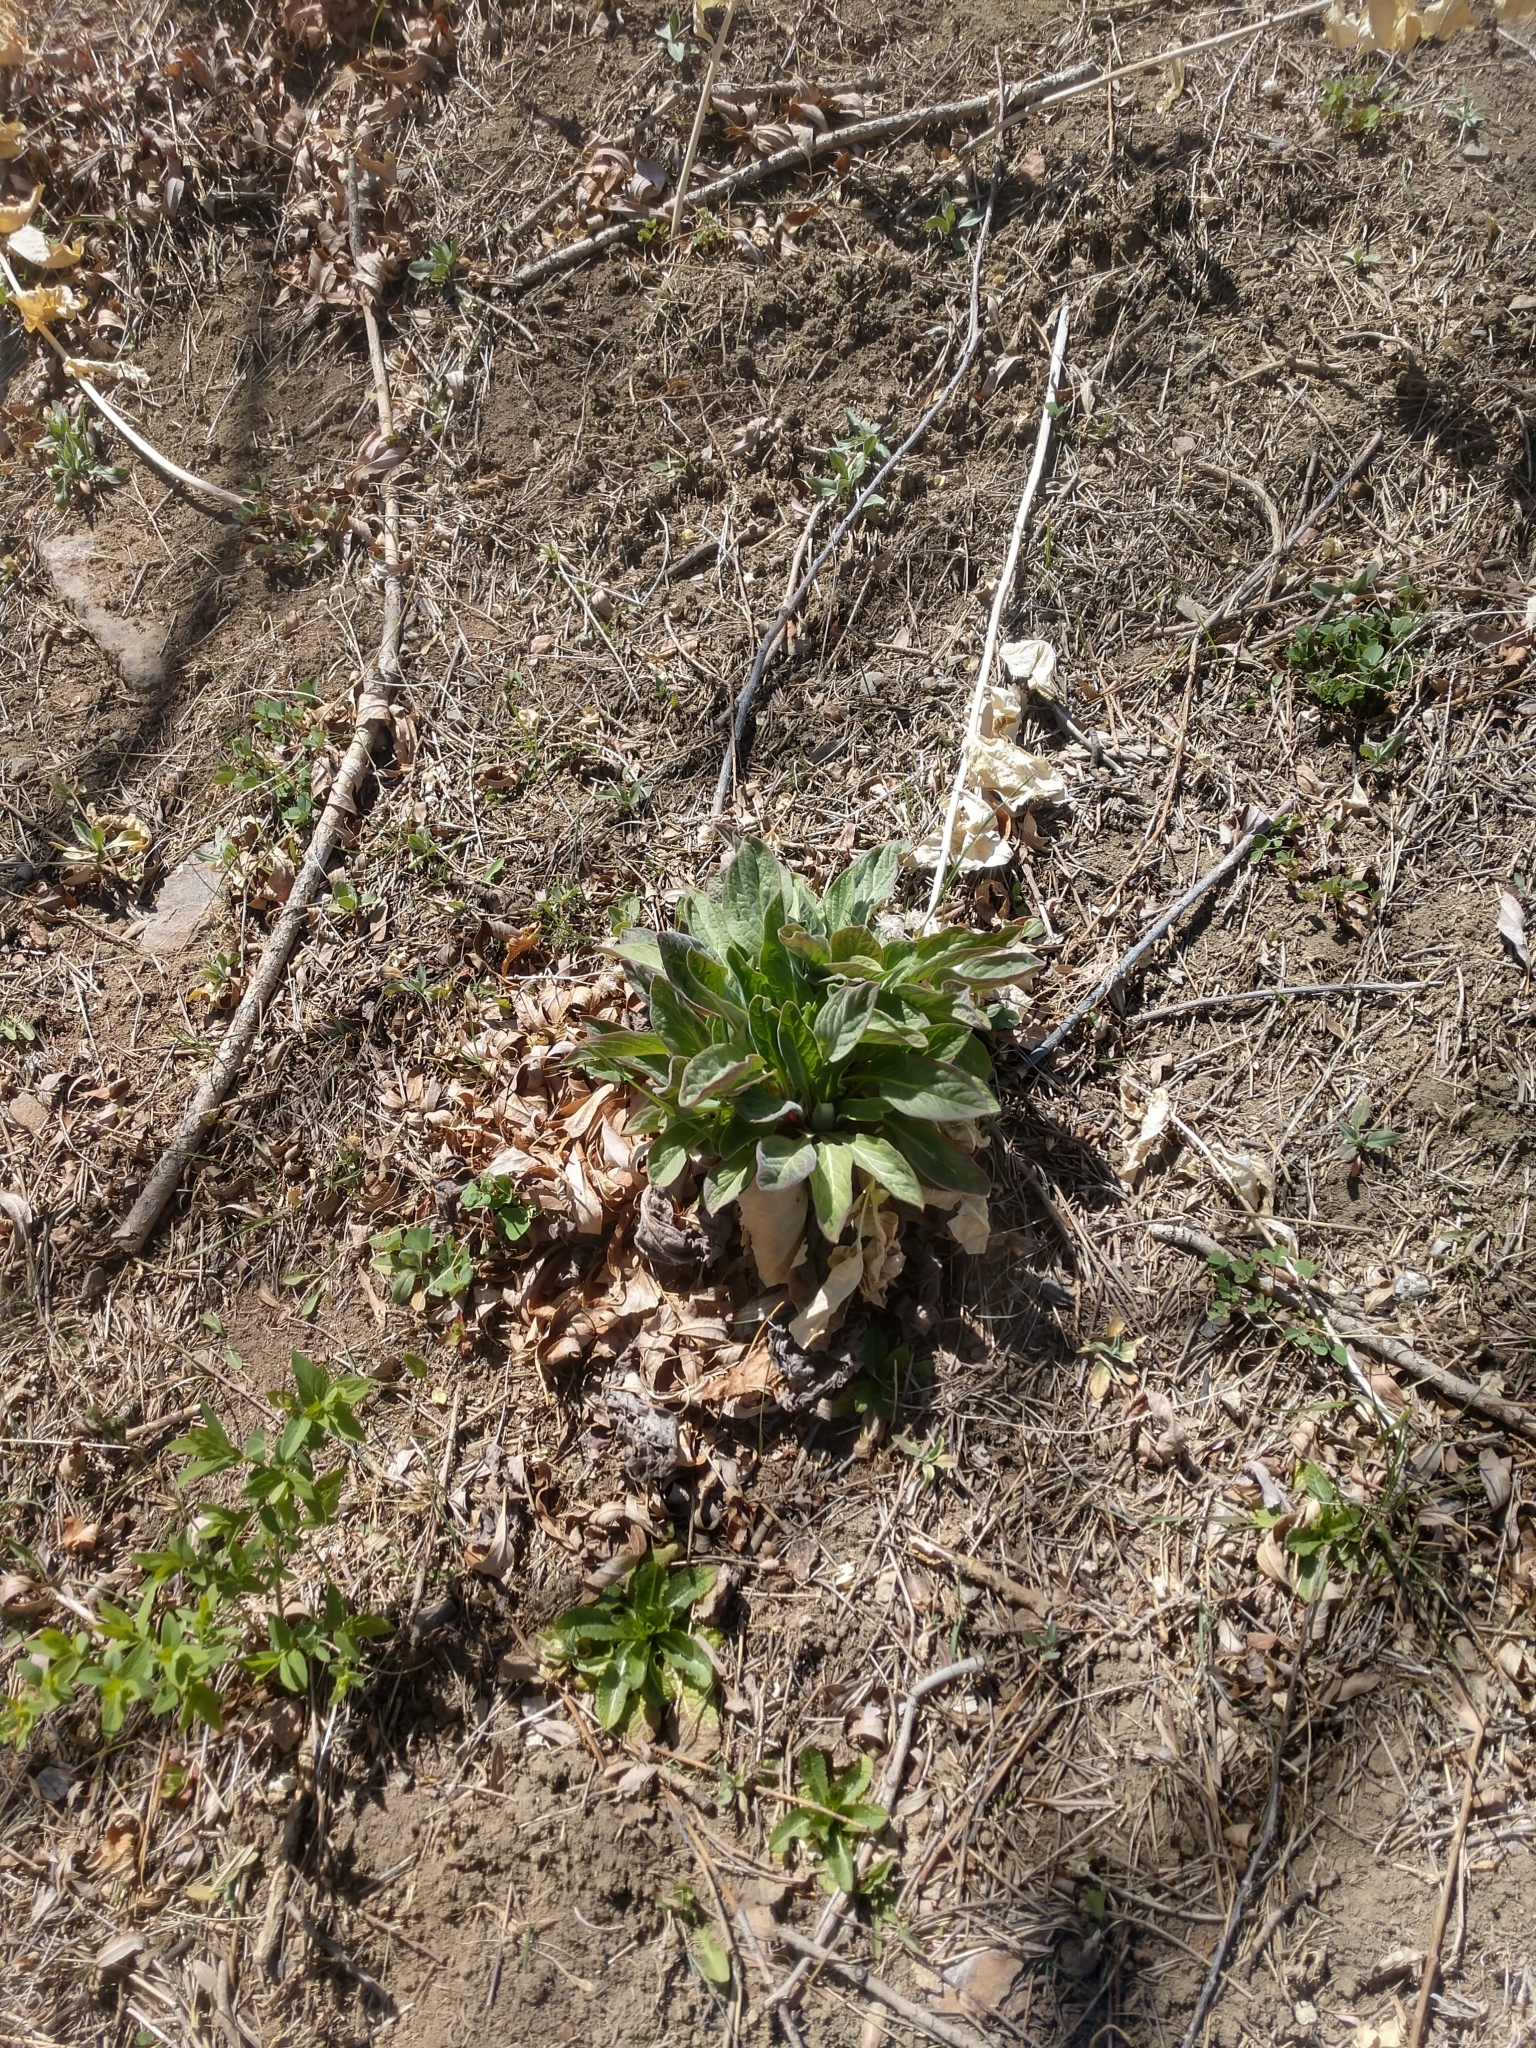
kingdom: Plantae
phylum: Tracheophyta
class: Magnoliopsida
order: Boraginales
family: Boraginaceae
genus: Cynoglossum
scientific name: Cynoglossum officinale
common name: Hound's-tongue
